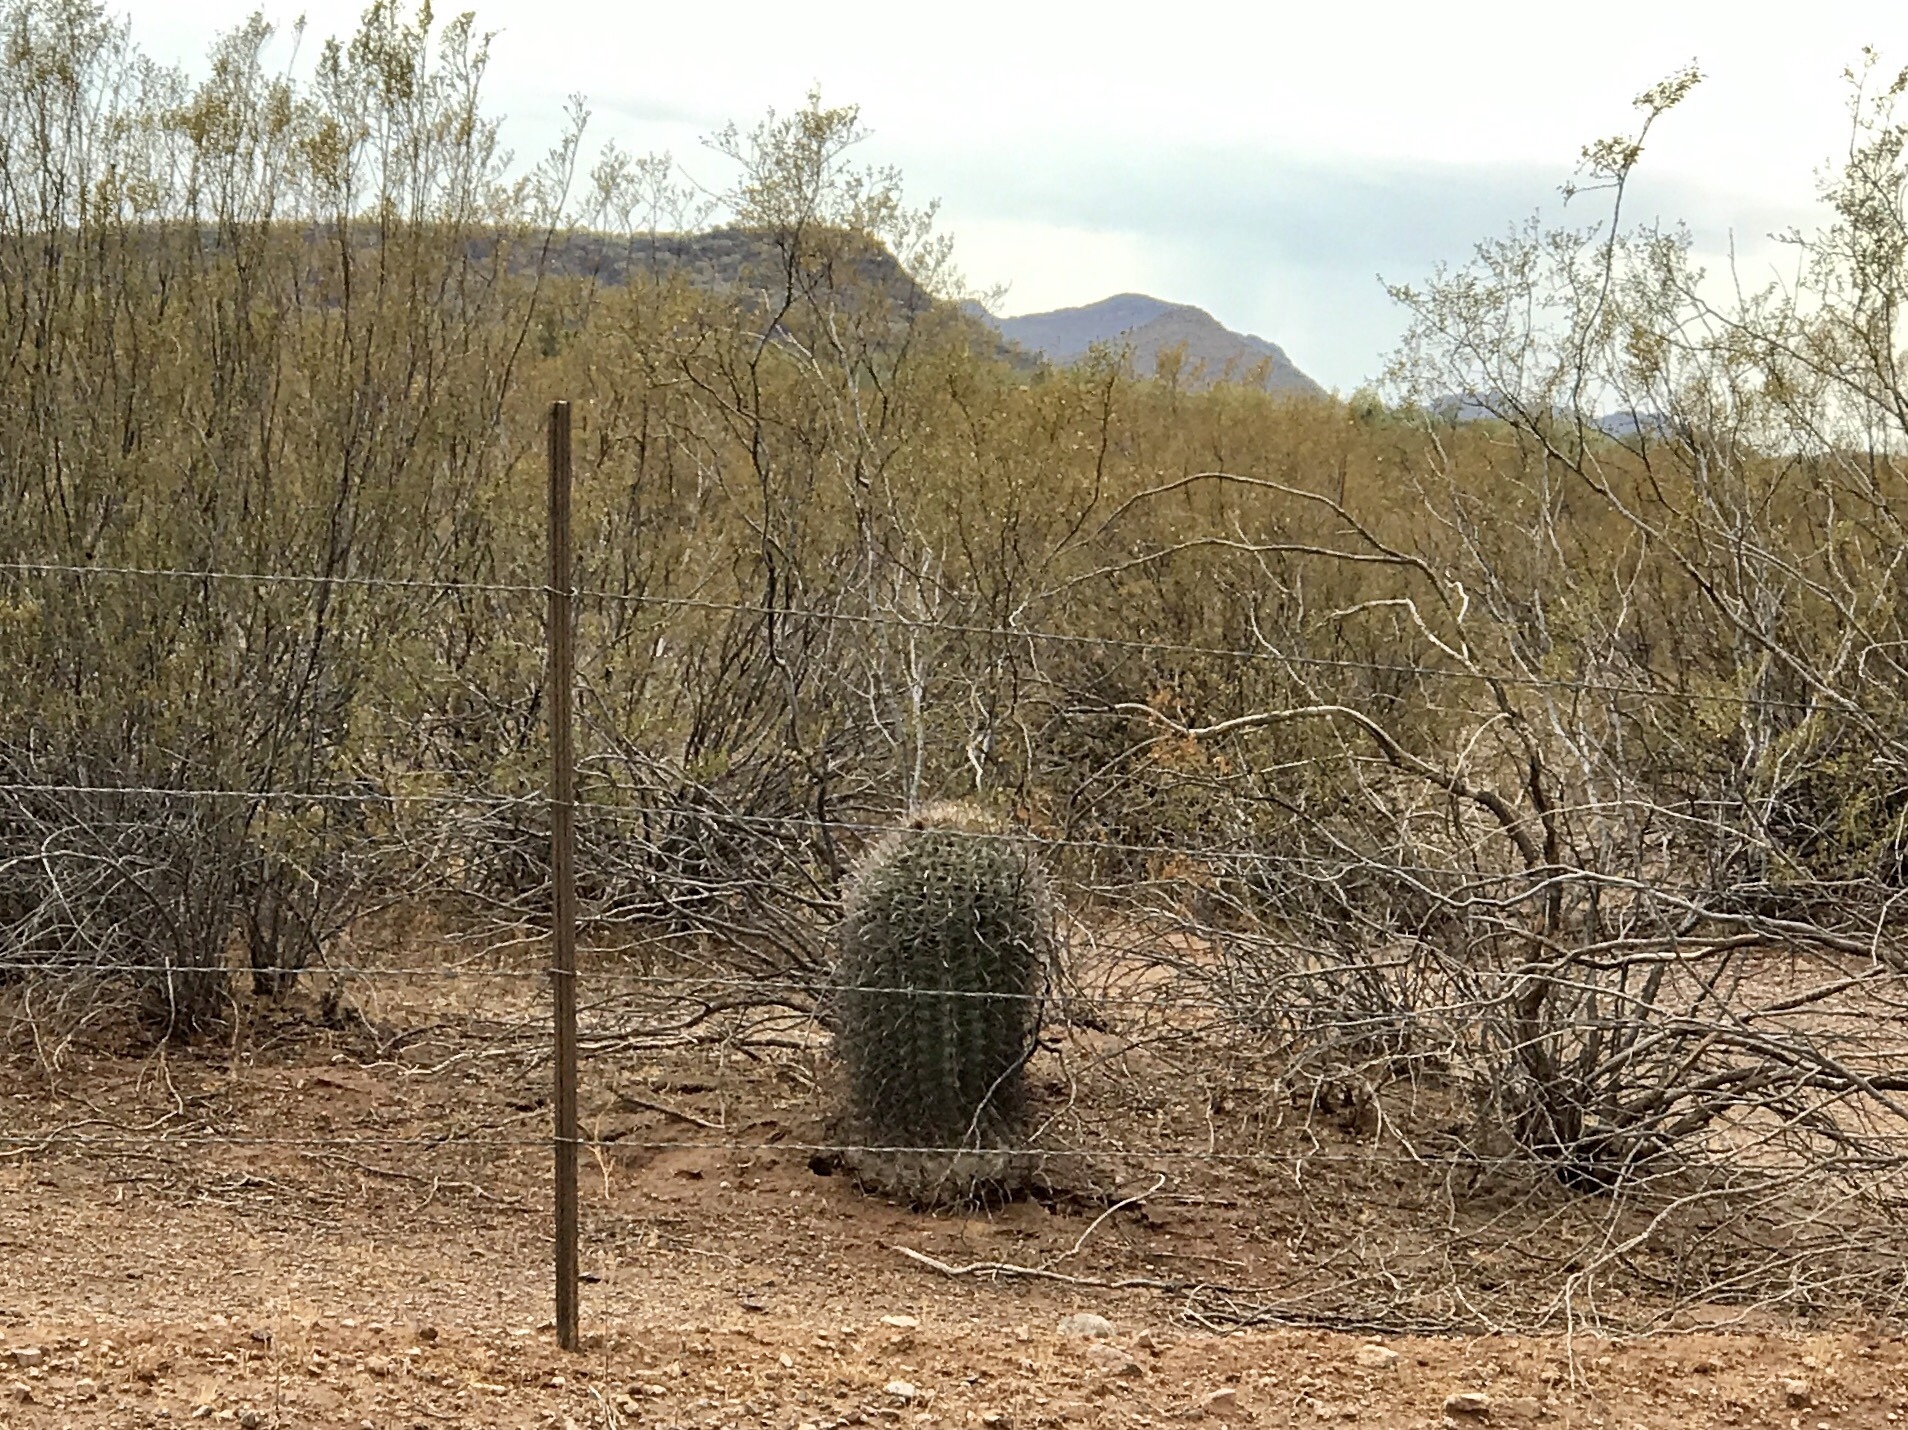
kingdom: Plantae
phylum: Tracheophyta
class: Magnoliopsida
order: Caryophyllales
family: Cactaceae
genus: Ferocactus
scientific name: Ferocactus wislizeni
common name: Candy barrel cactus
